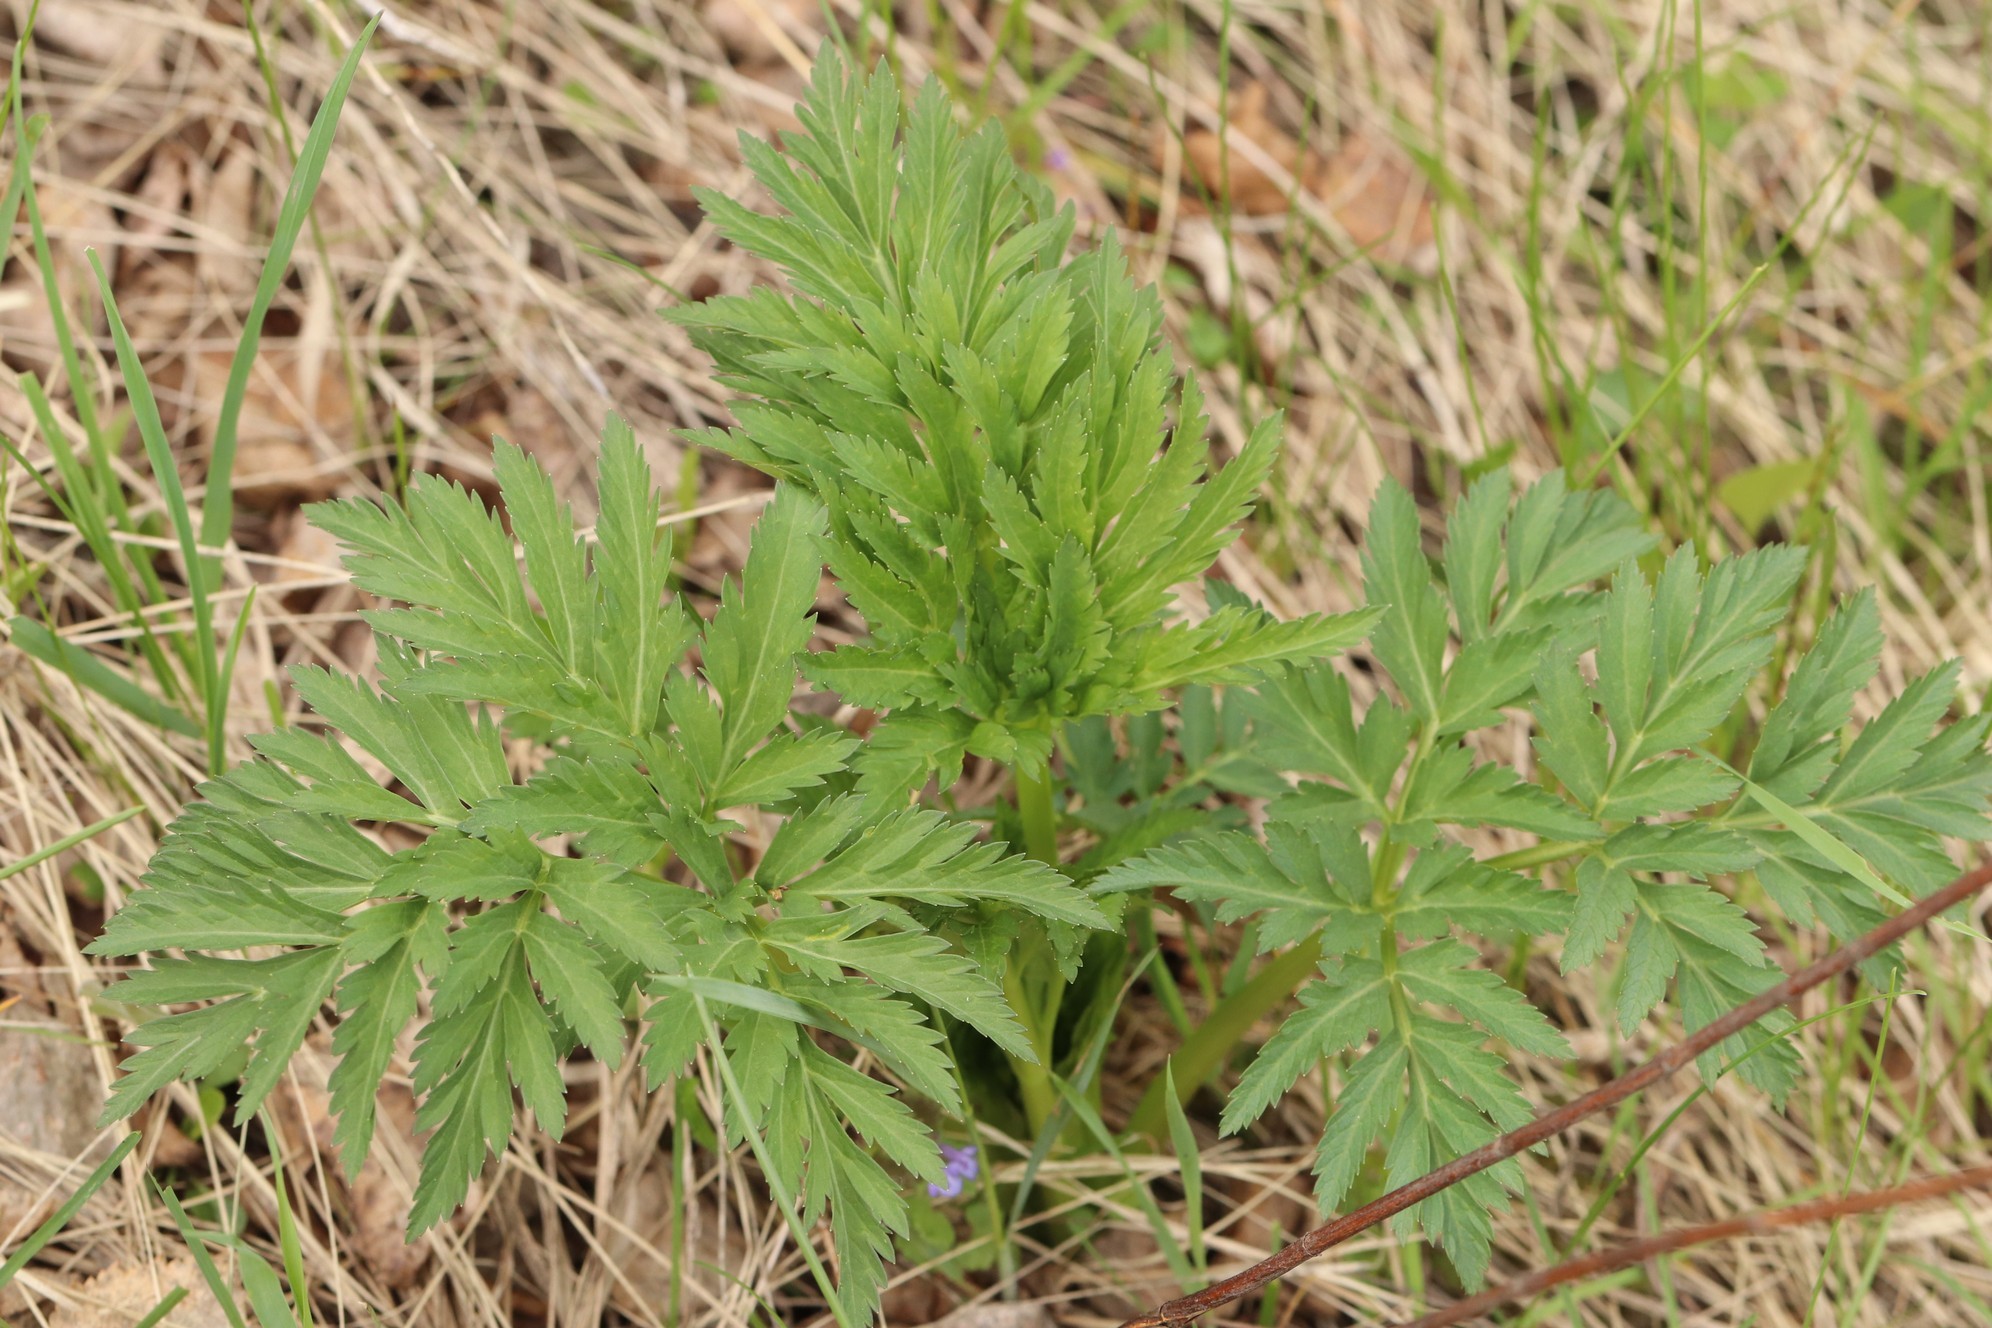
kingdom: Plantae
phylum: Tracheophyta
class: Magnoliopsida
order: Apiales
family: Apiaceae
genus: Pleurospermum
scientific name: Pleurospermum uralense
